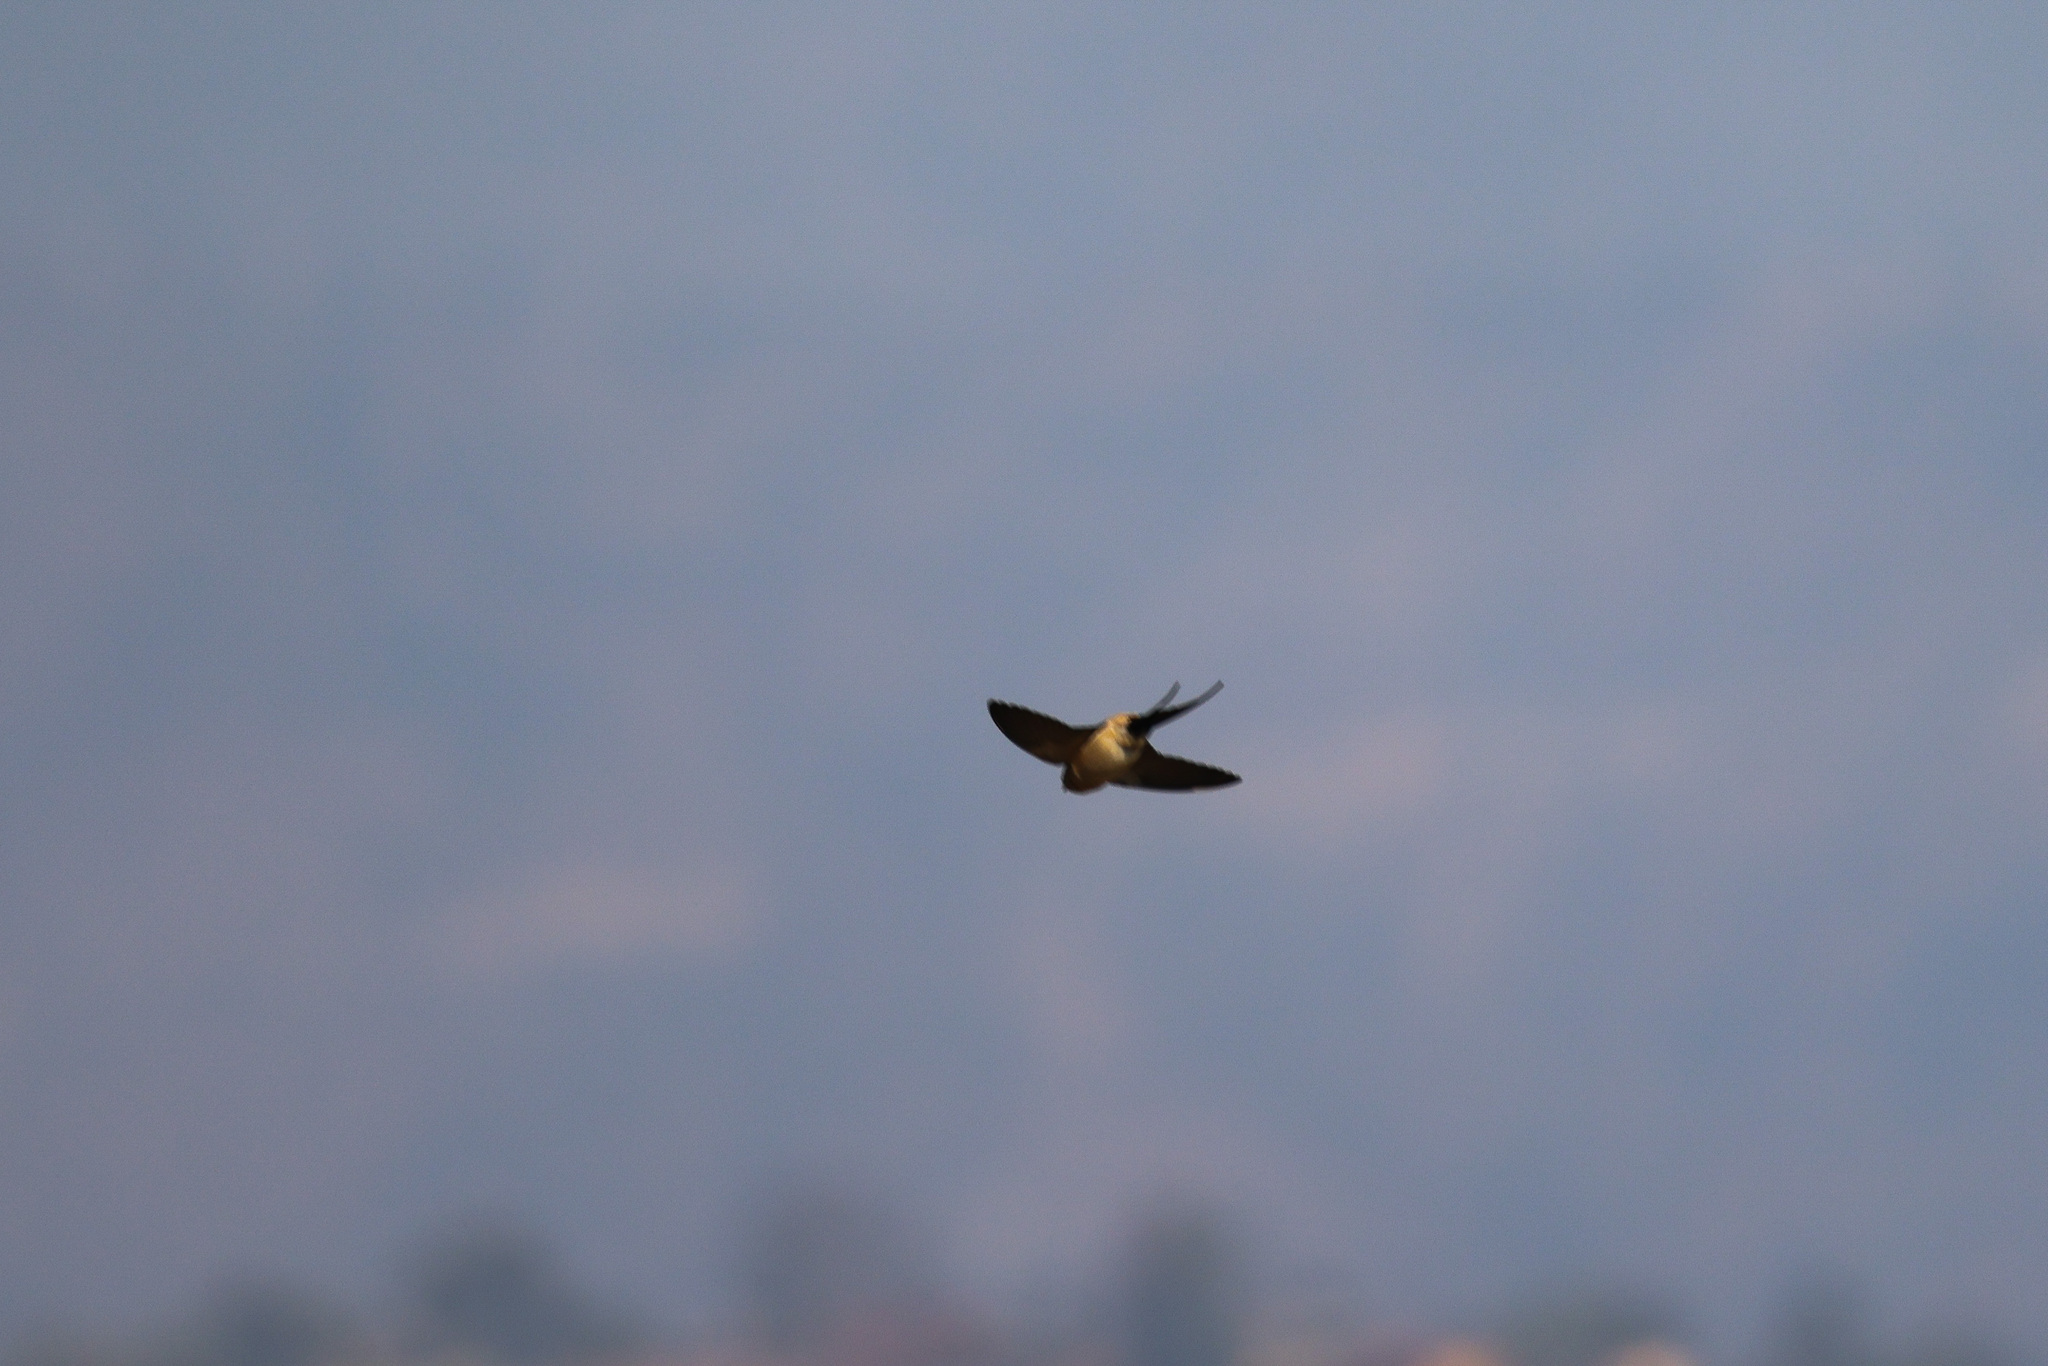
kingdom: Animalia
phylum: Chordata
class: Aves
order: Passeriformes
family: Hirundinidae
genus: Cecropis
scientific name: Cecropis daurica
